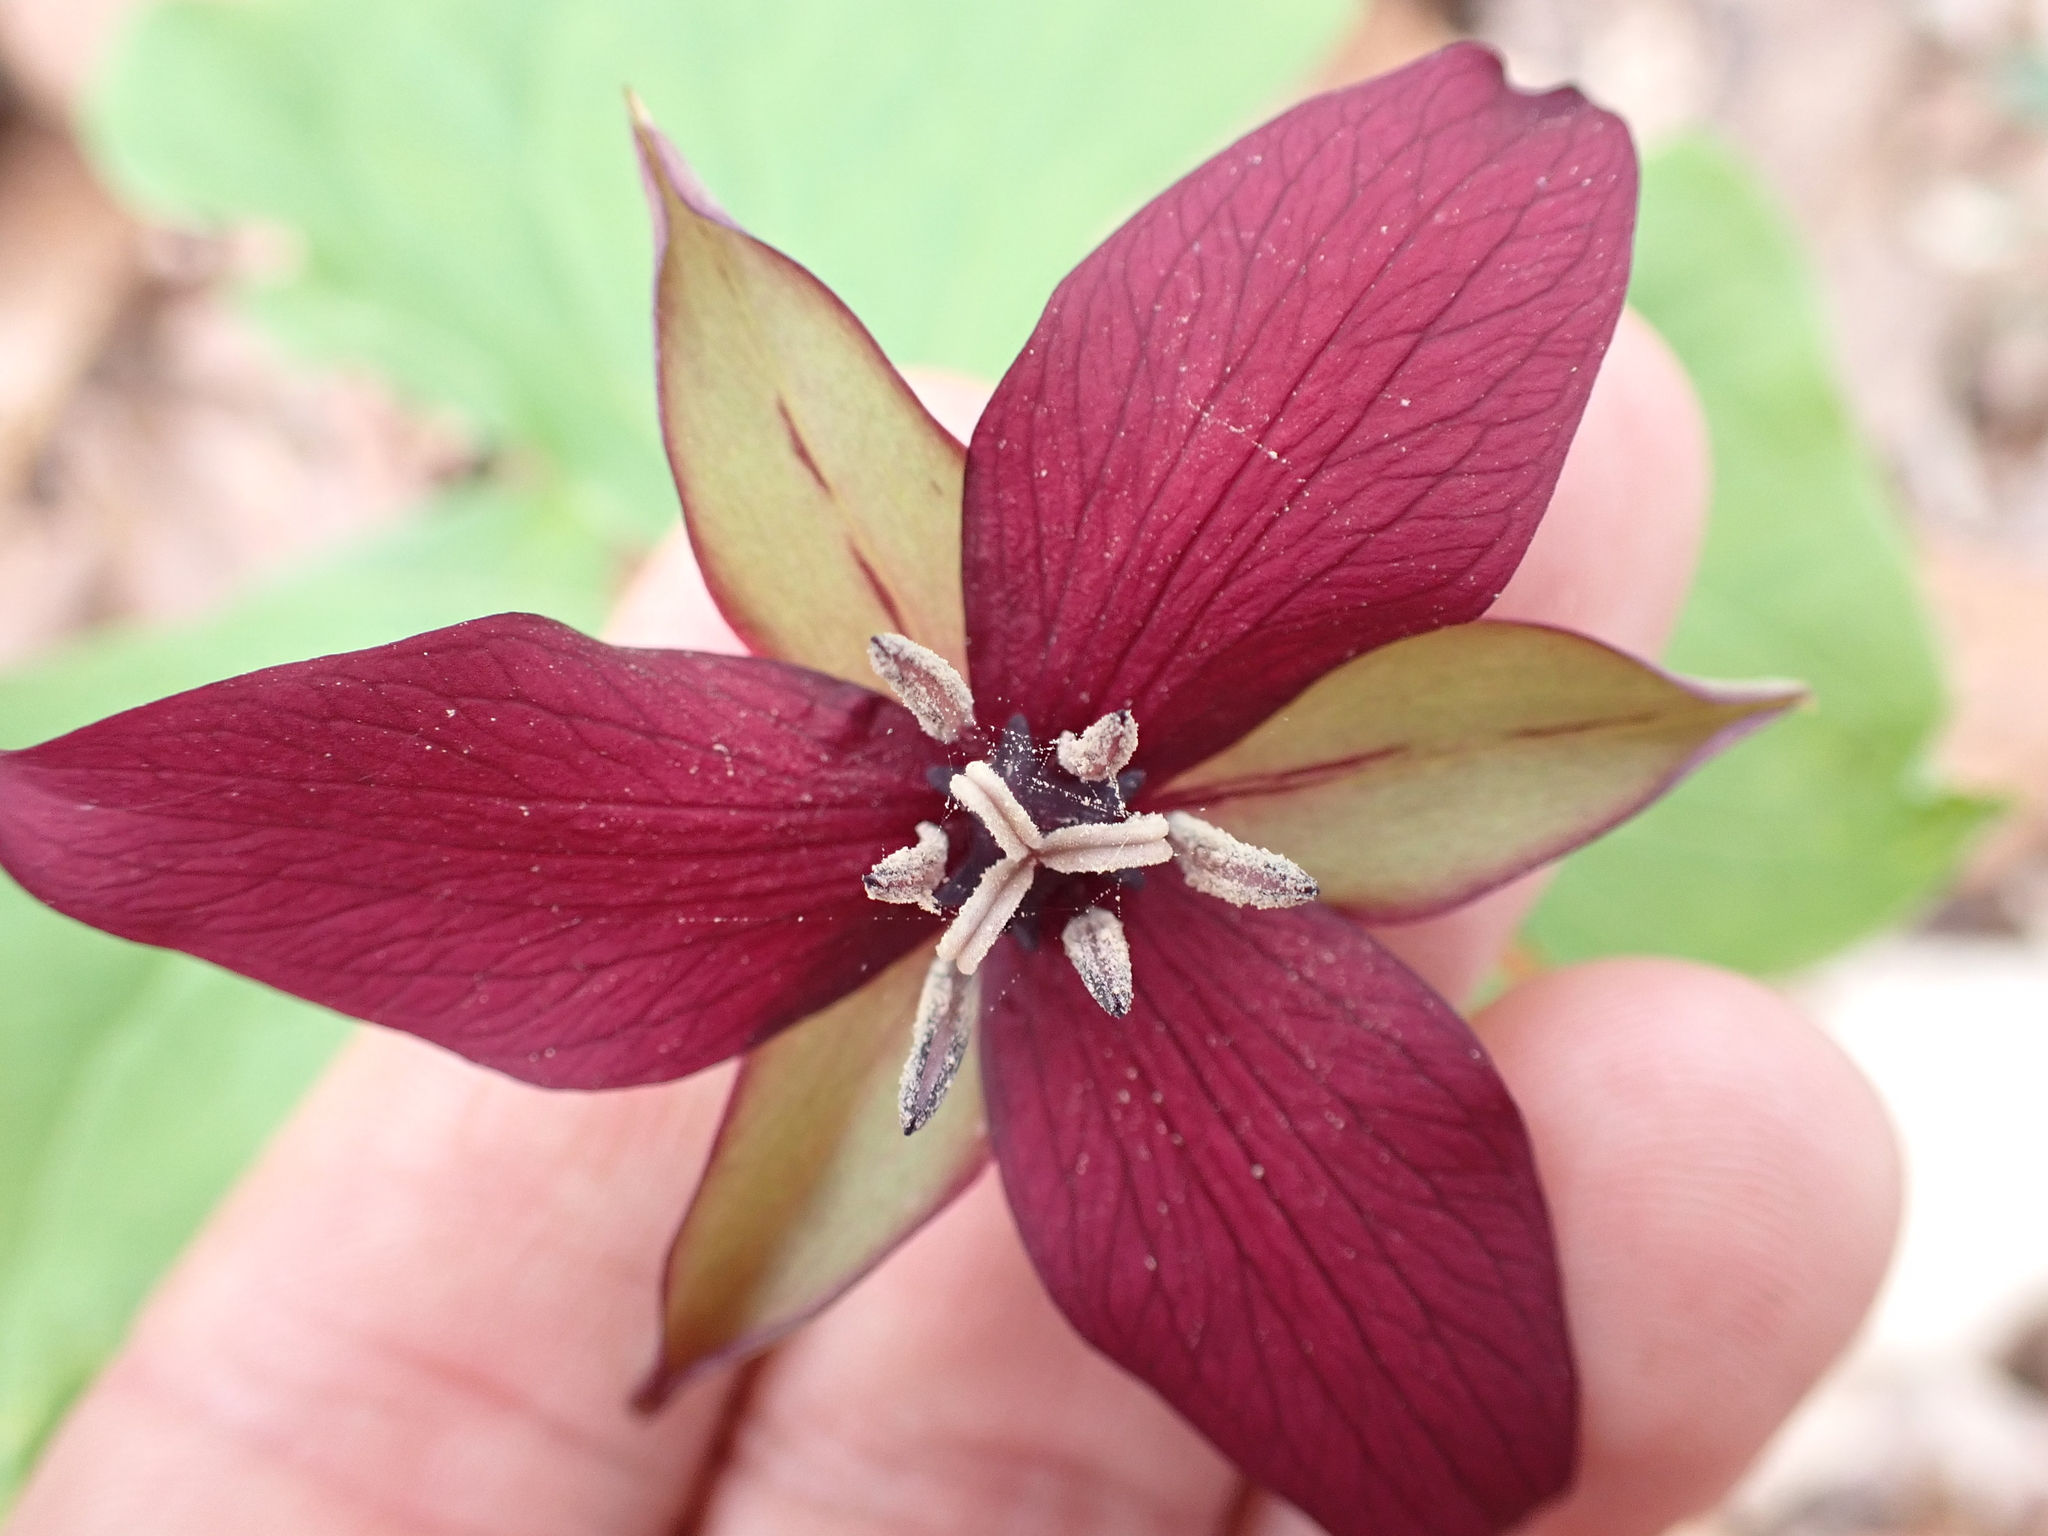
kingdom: Plantae
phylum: Tracheophyta
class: Liliopsida
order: Liliales
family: Melanthiaceae
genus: Trillium
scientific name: Trillium erectum
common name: Purple trillium
